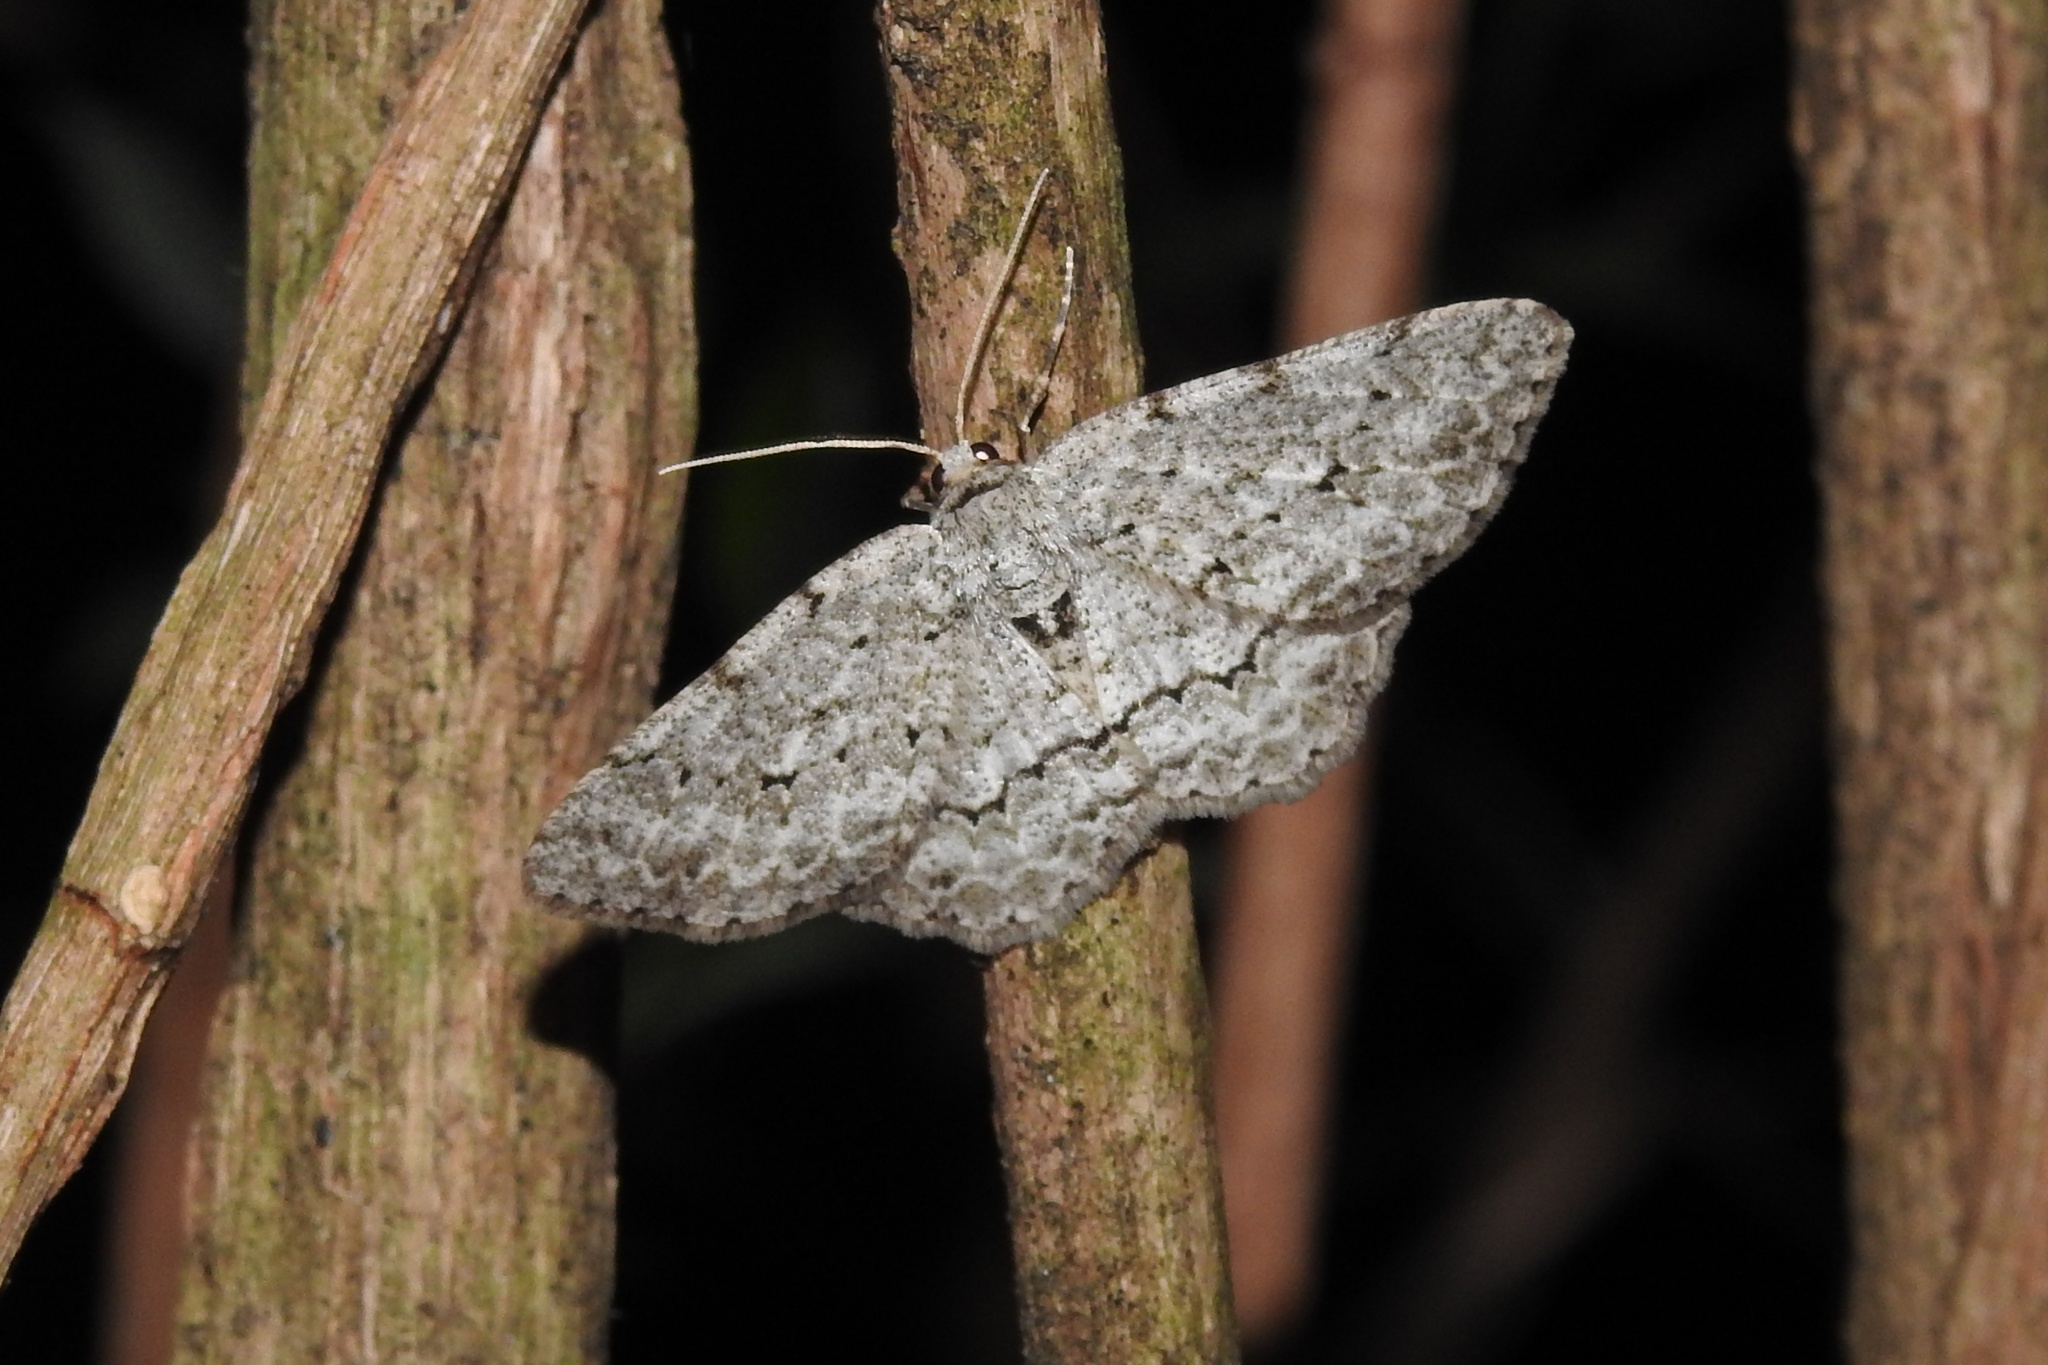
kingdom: Animalia
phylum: Arthropoda
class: Insecta
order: Lepidoptera
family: Geometridae
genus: Ectropis
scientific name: Ectropis crepuscularia
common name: Engrailed
